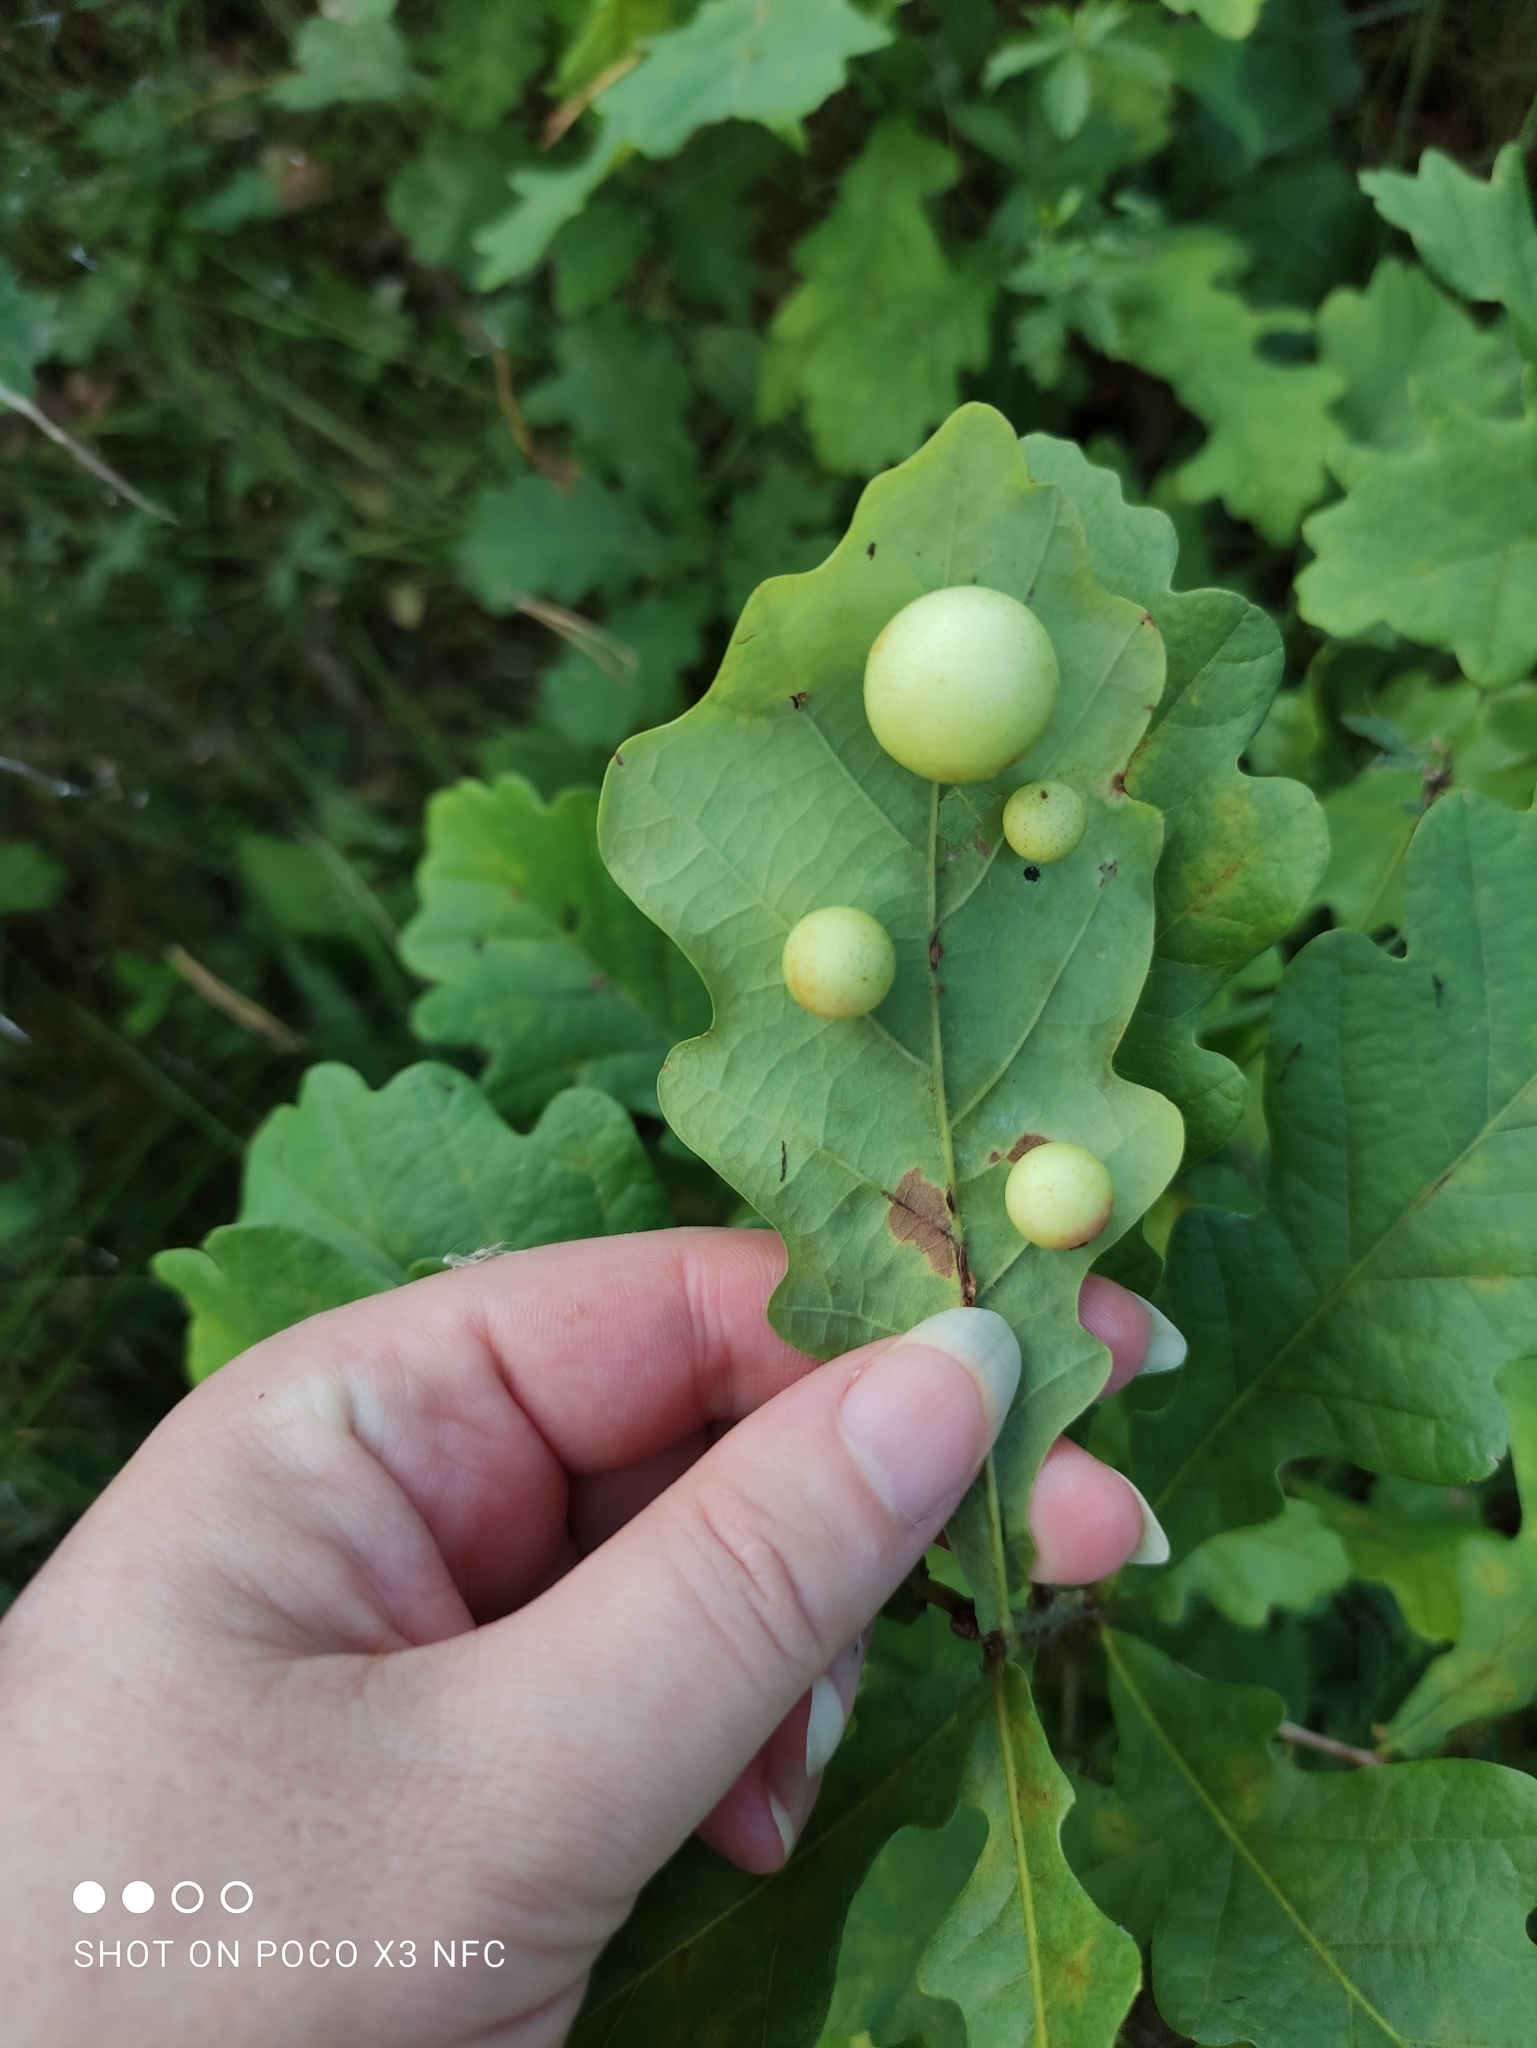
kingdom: Animalia
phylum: Arthropoda
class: Insecta
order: Hymenoptera
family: Cynipidae
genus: Cynips
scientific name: Cynips quercusfolii
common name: Cherry gall
